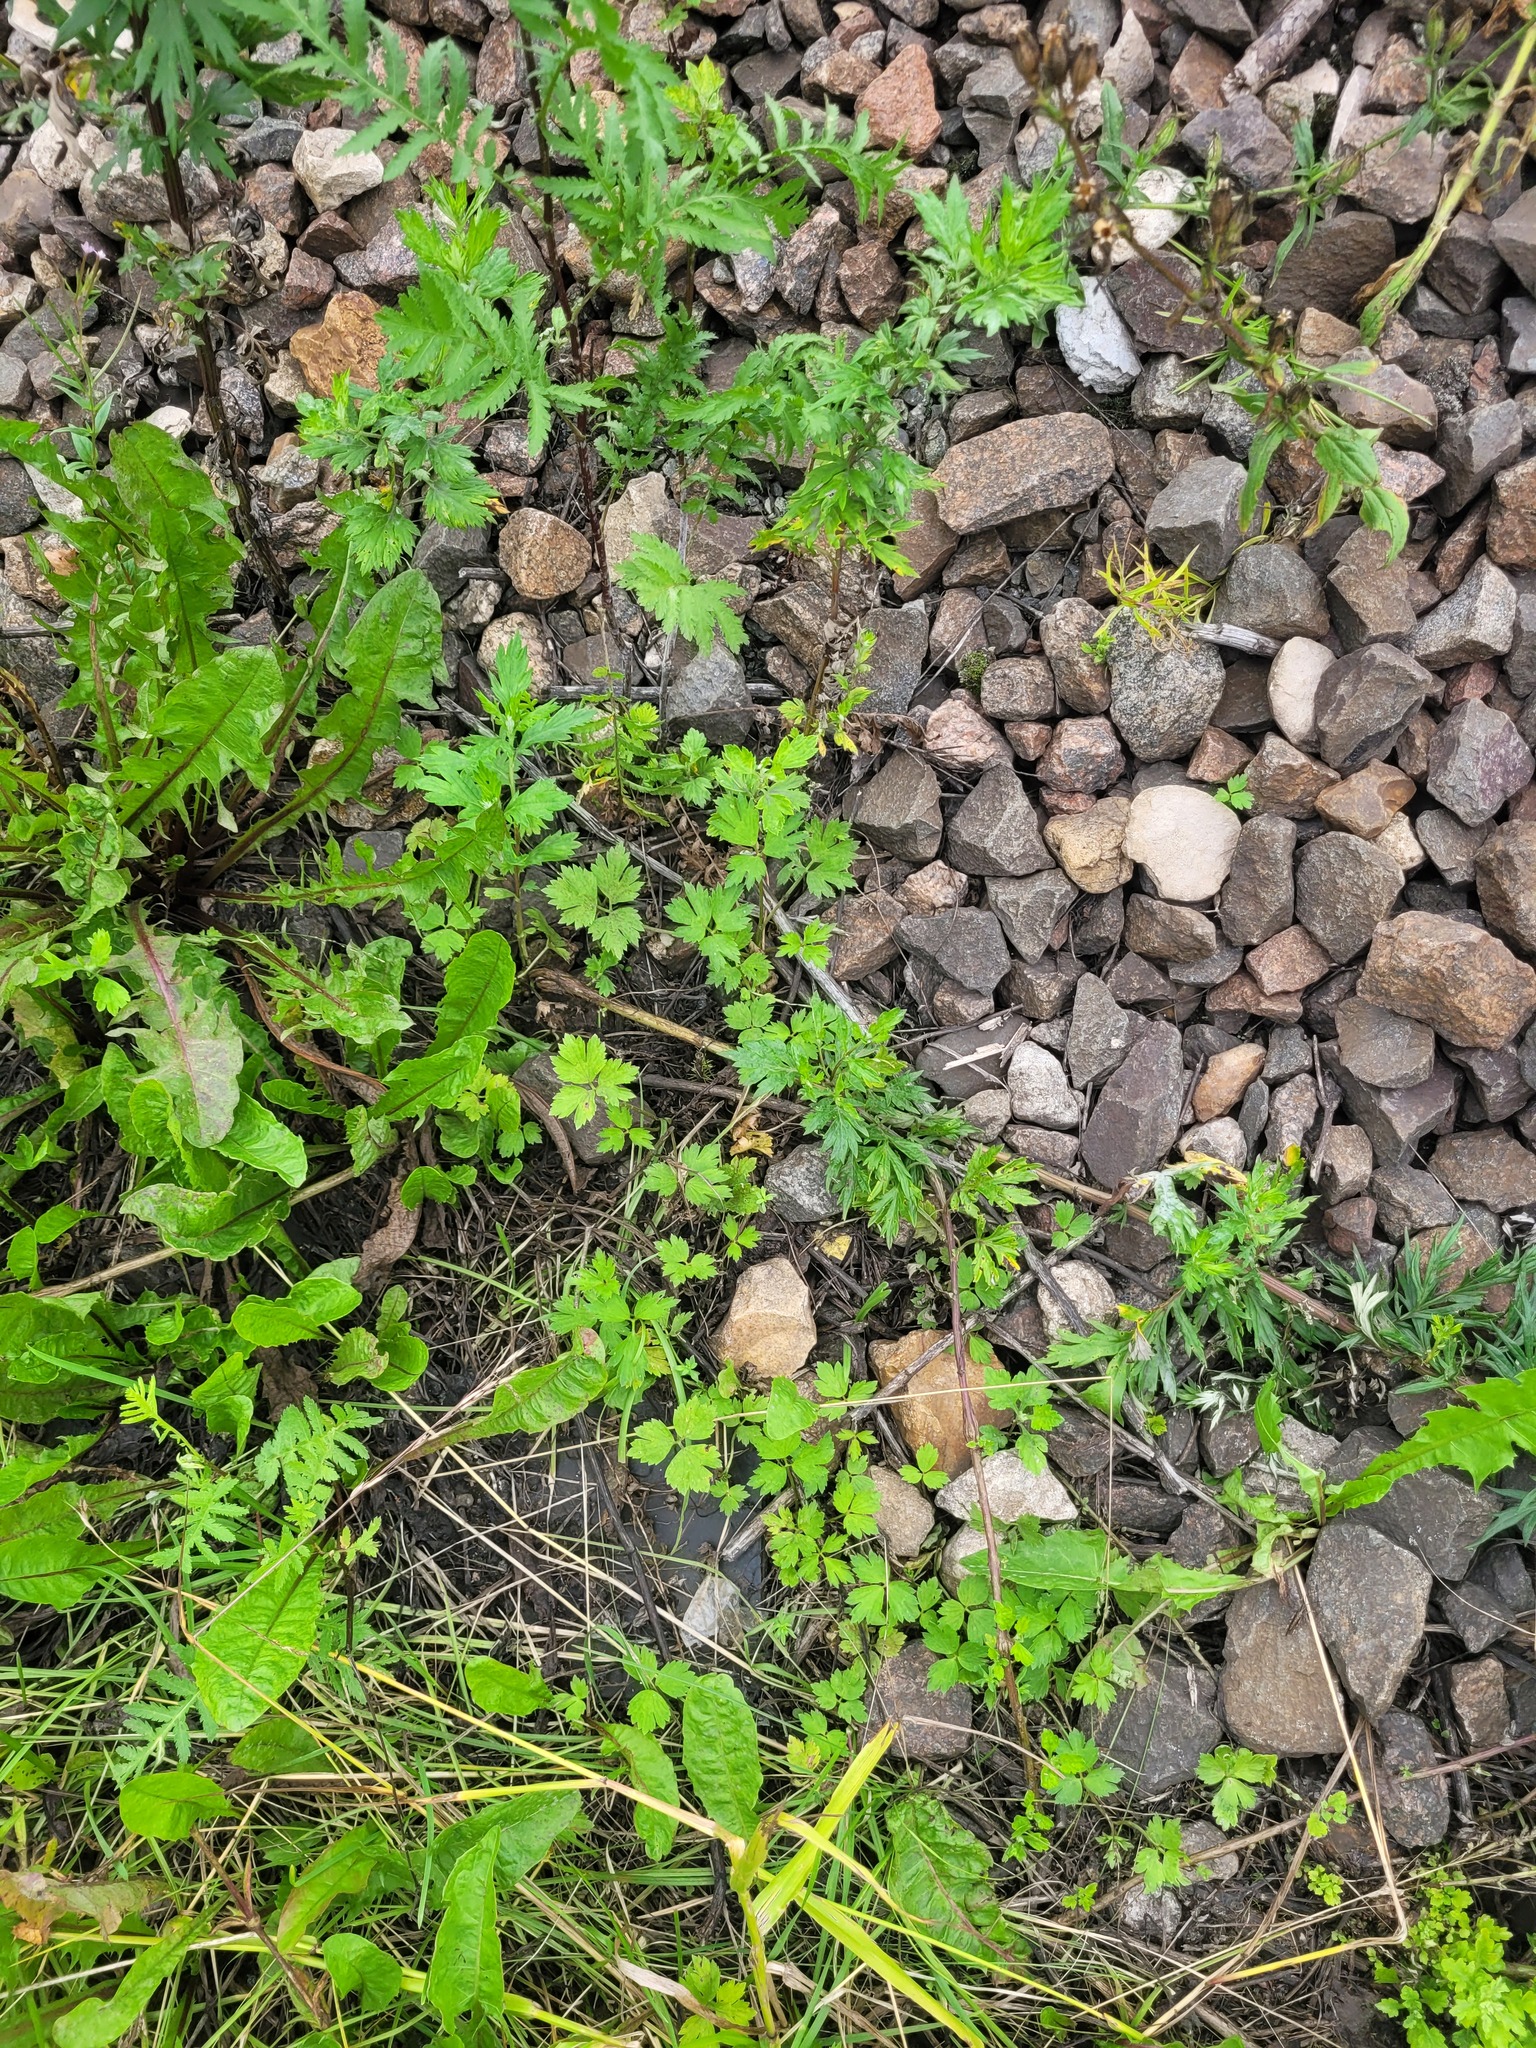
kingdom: Plantae
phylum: Tracheophyta
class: Magnoliopsida
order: Ranunculales
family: Ranunculaceae
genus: Ranunculus
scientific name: Ranunculus repens
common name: Creeping buttercup
